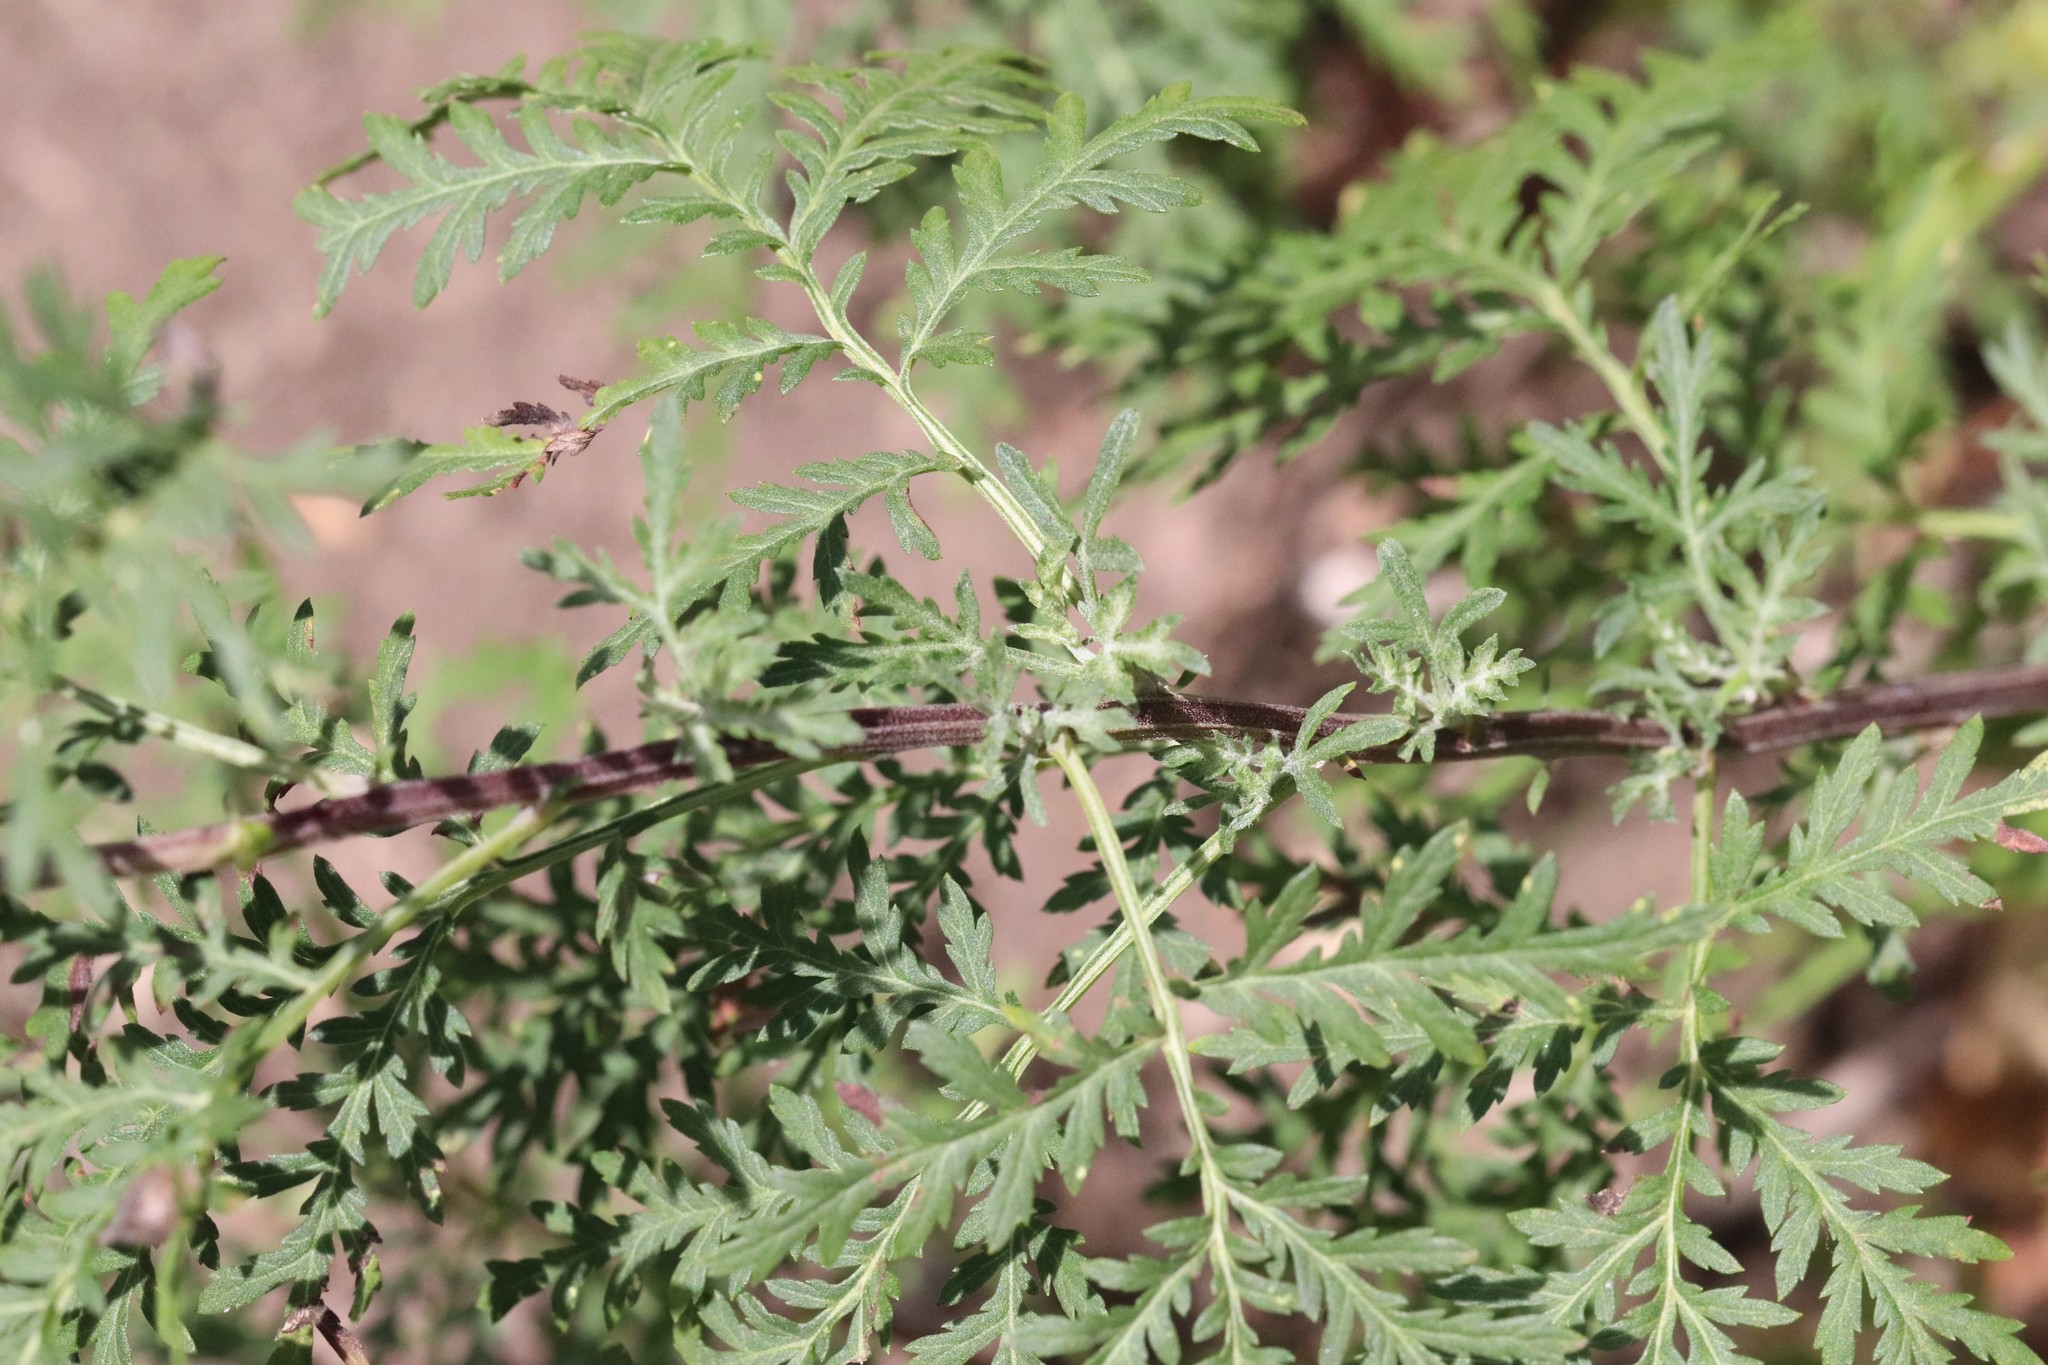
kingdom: Plantae
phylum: Tracheophyta
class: Magnoliopsida
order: Asterales
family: Asteraceae
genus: Artemisia
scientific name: Artemisia gmelinii
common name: Gmelin's wormwood
